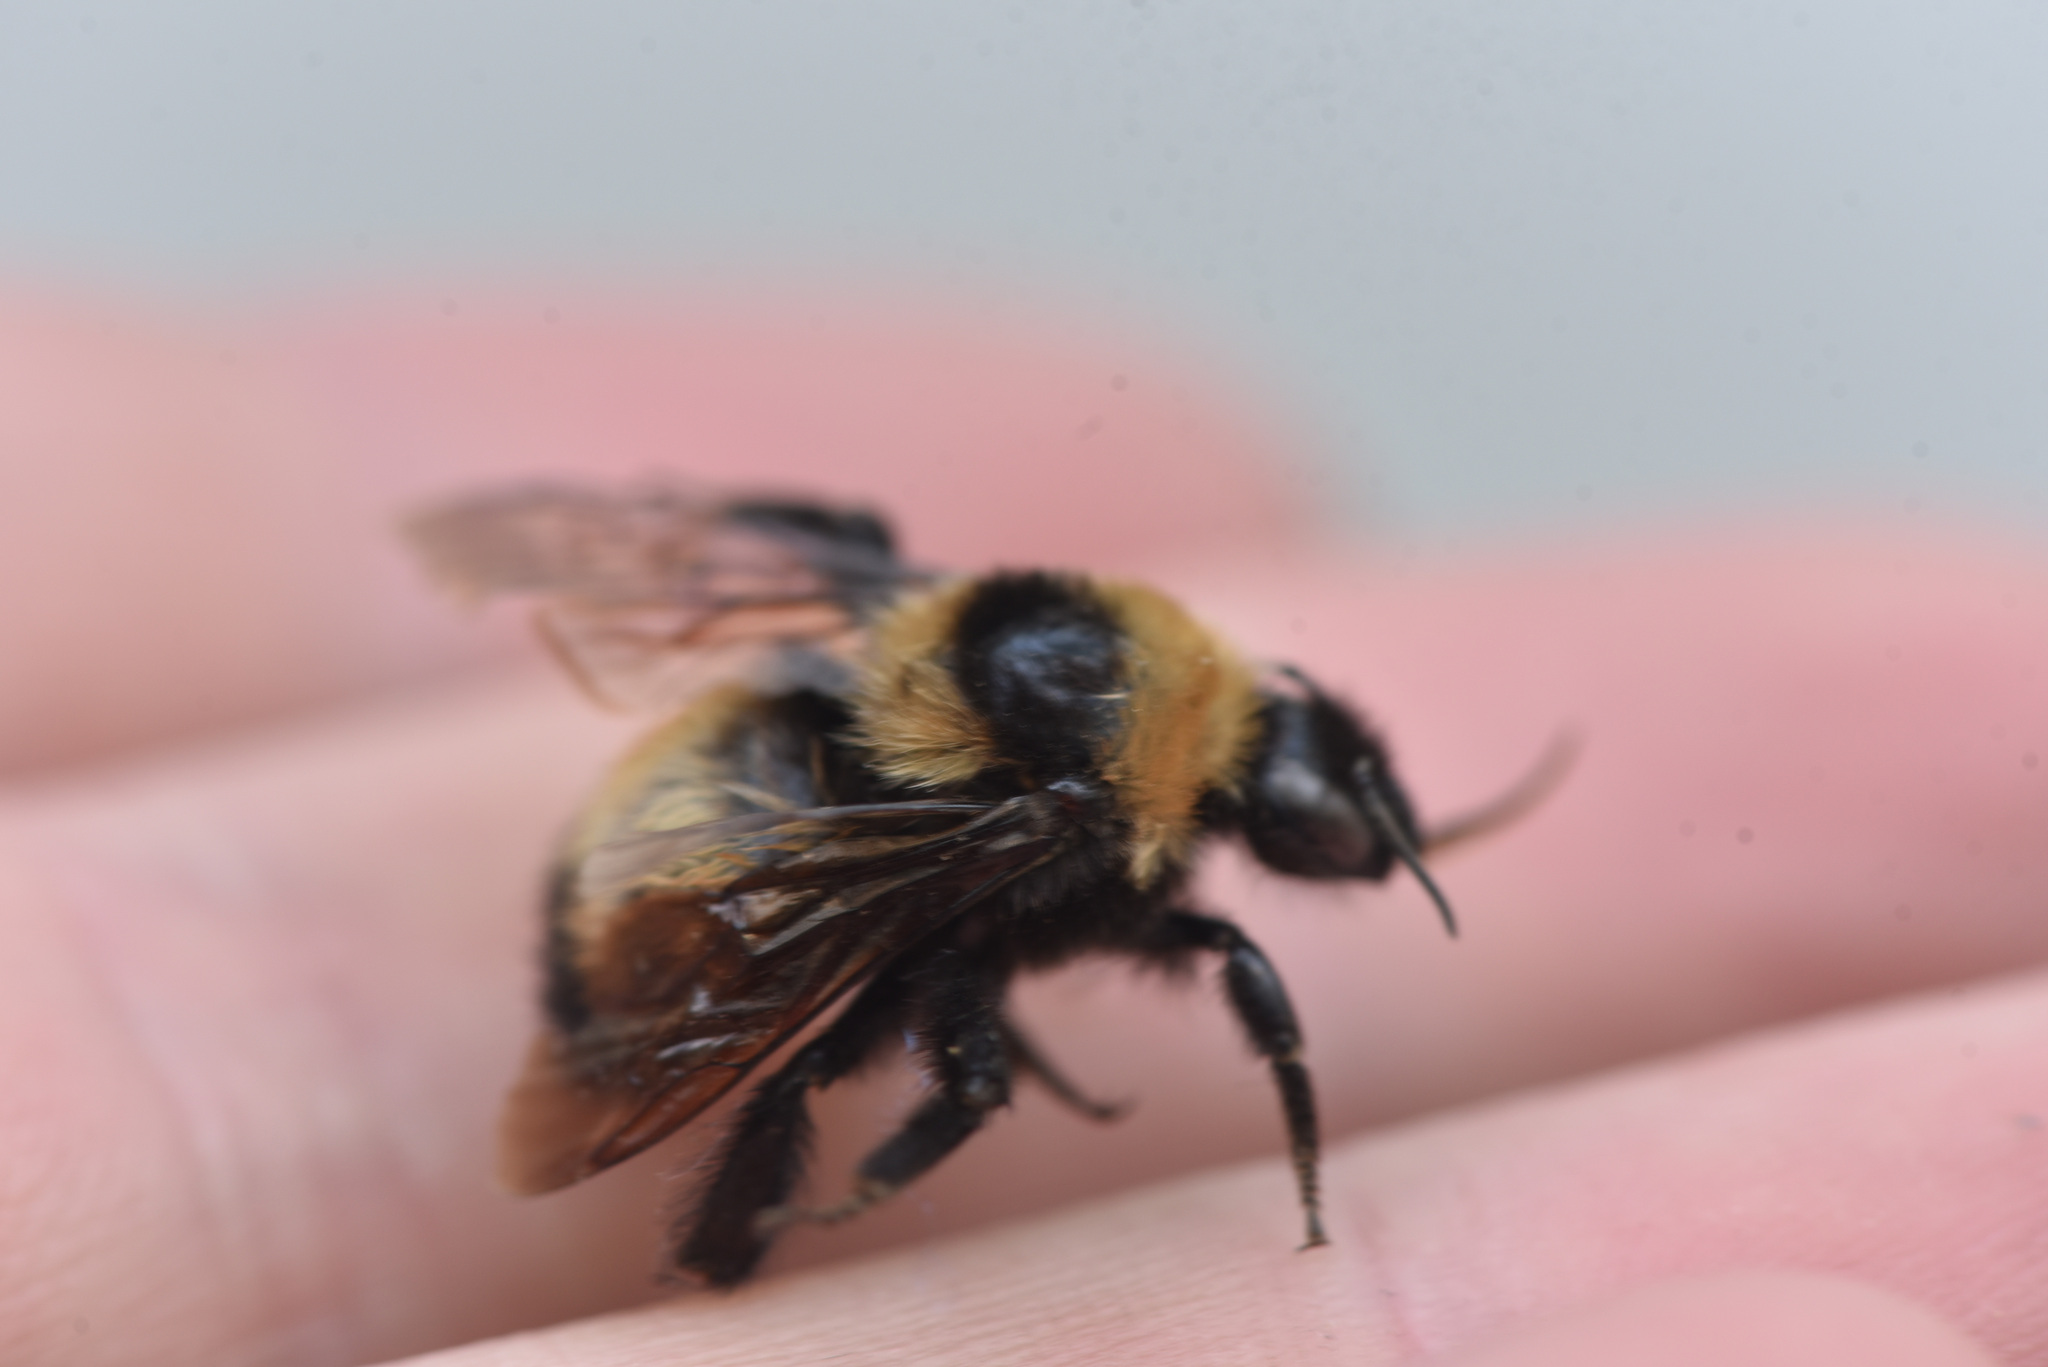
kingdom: Animalia
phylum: Arthropoda
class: Insecta
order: Hymenoptera
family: Apidae
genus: Bombus
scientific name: Bombus nevadensis
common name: Nevada bumble bee
